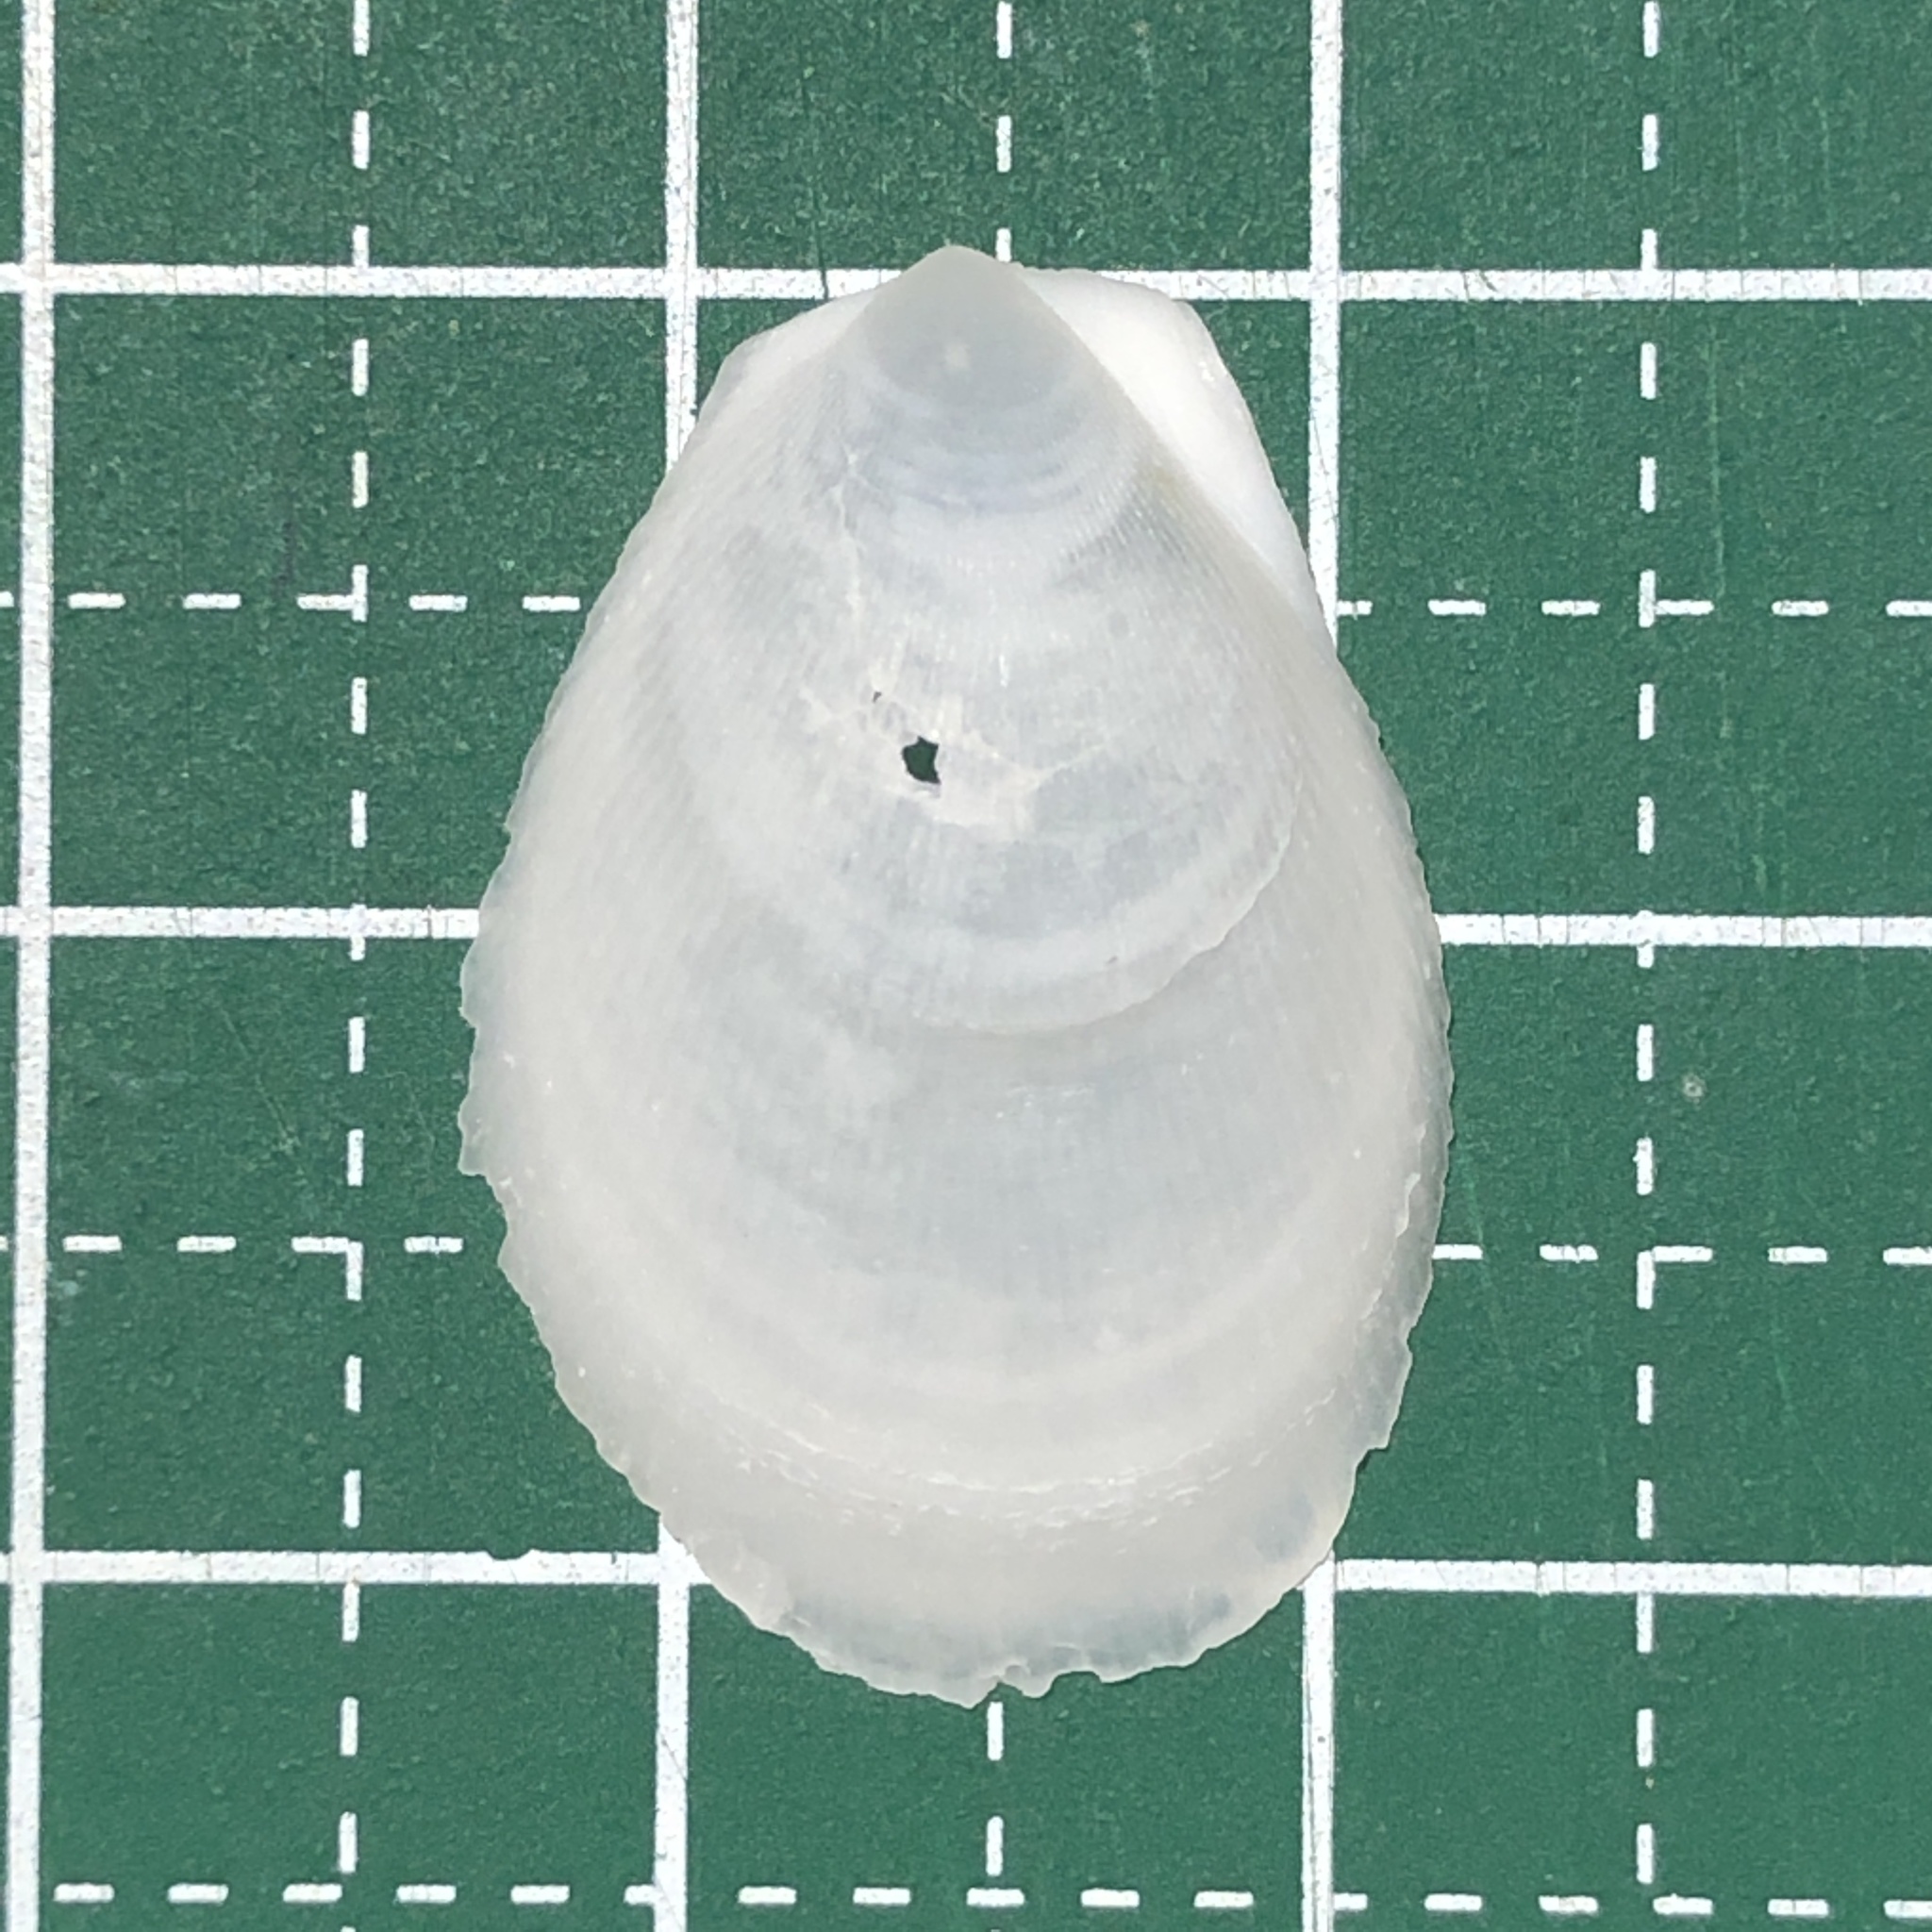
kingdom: Animalia
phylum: Mollusca
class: Bivalvia
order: Limida
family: Limidae
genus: Ctenoides
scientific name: Ctenoides lischkei
